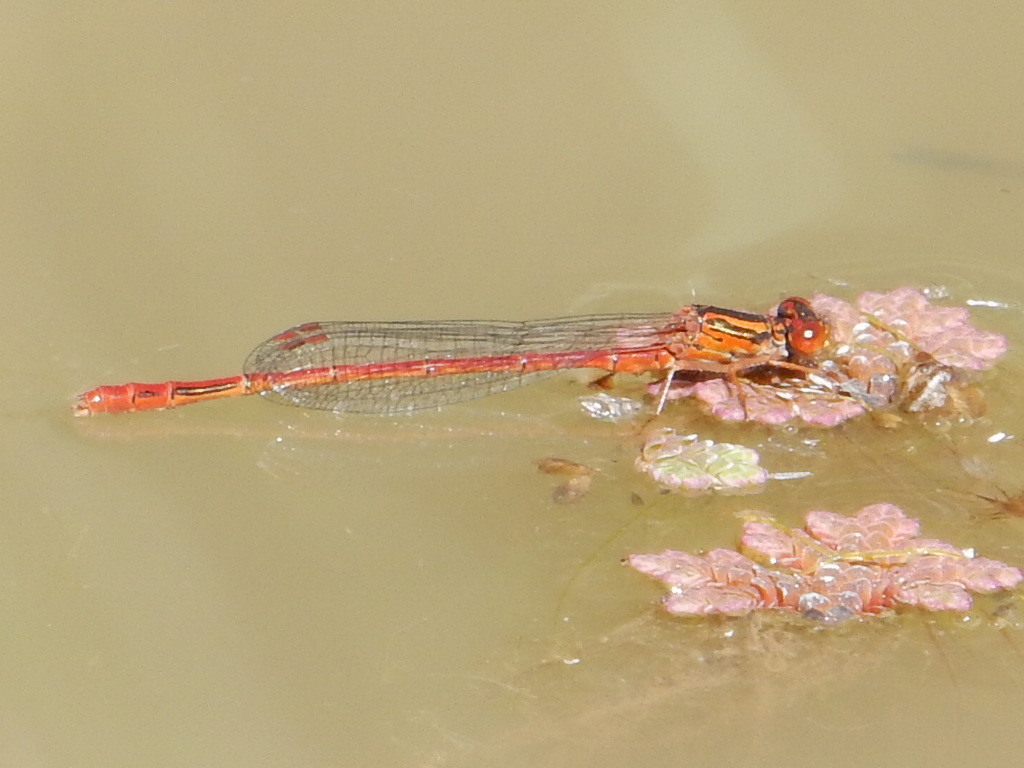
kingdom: Animalia
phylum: Arthropoda
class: Insecta
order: Odonata
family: Coenagrionidae
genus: Xanthocnemis
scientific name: Xanthocnemis zealandica
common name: Common redcoat damselfly
